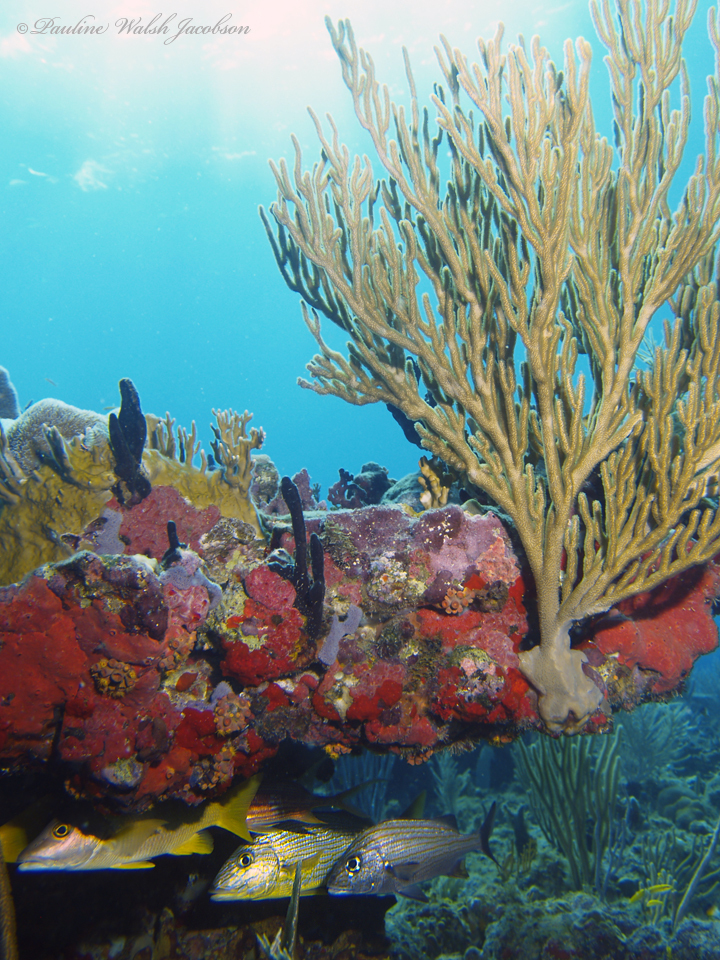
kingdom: Animalia
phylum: Chordata
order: Perciformes
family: Lutjanidae
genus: Lutjanus
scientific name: Lutjanus apodus
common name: Schoolmaster
